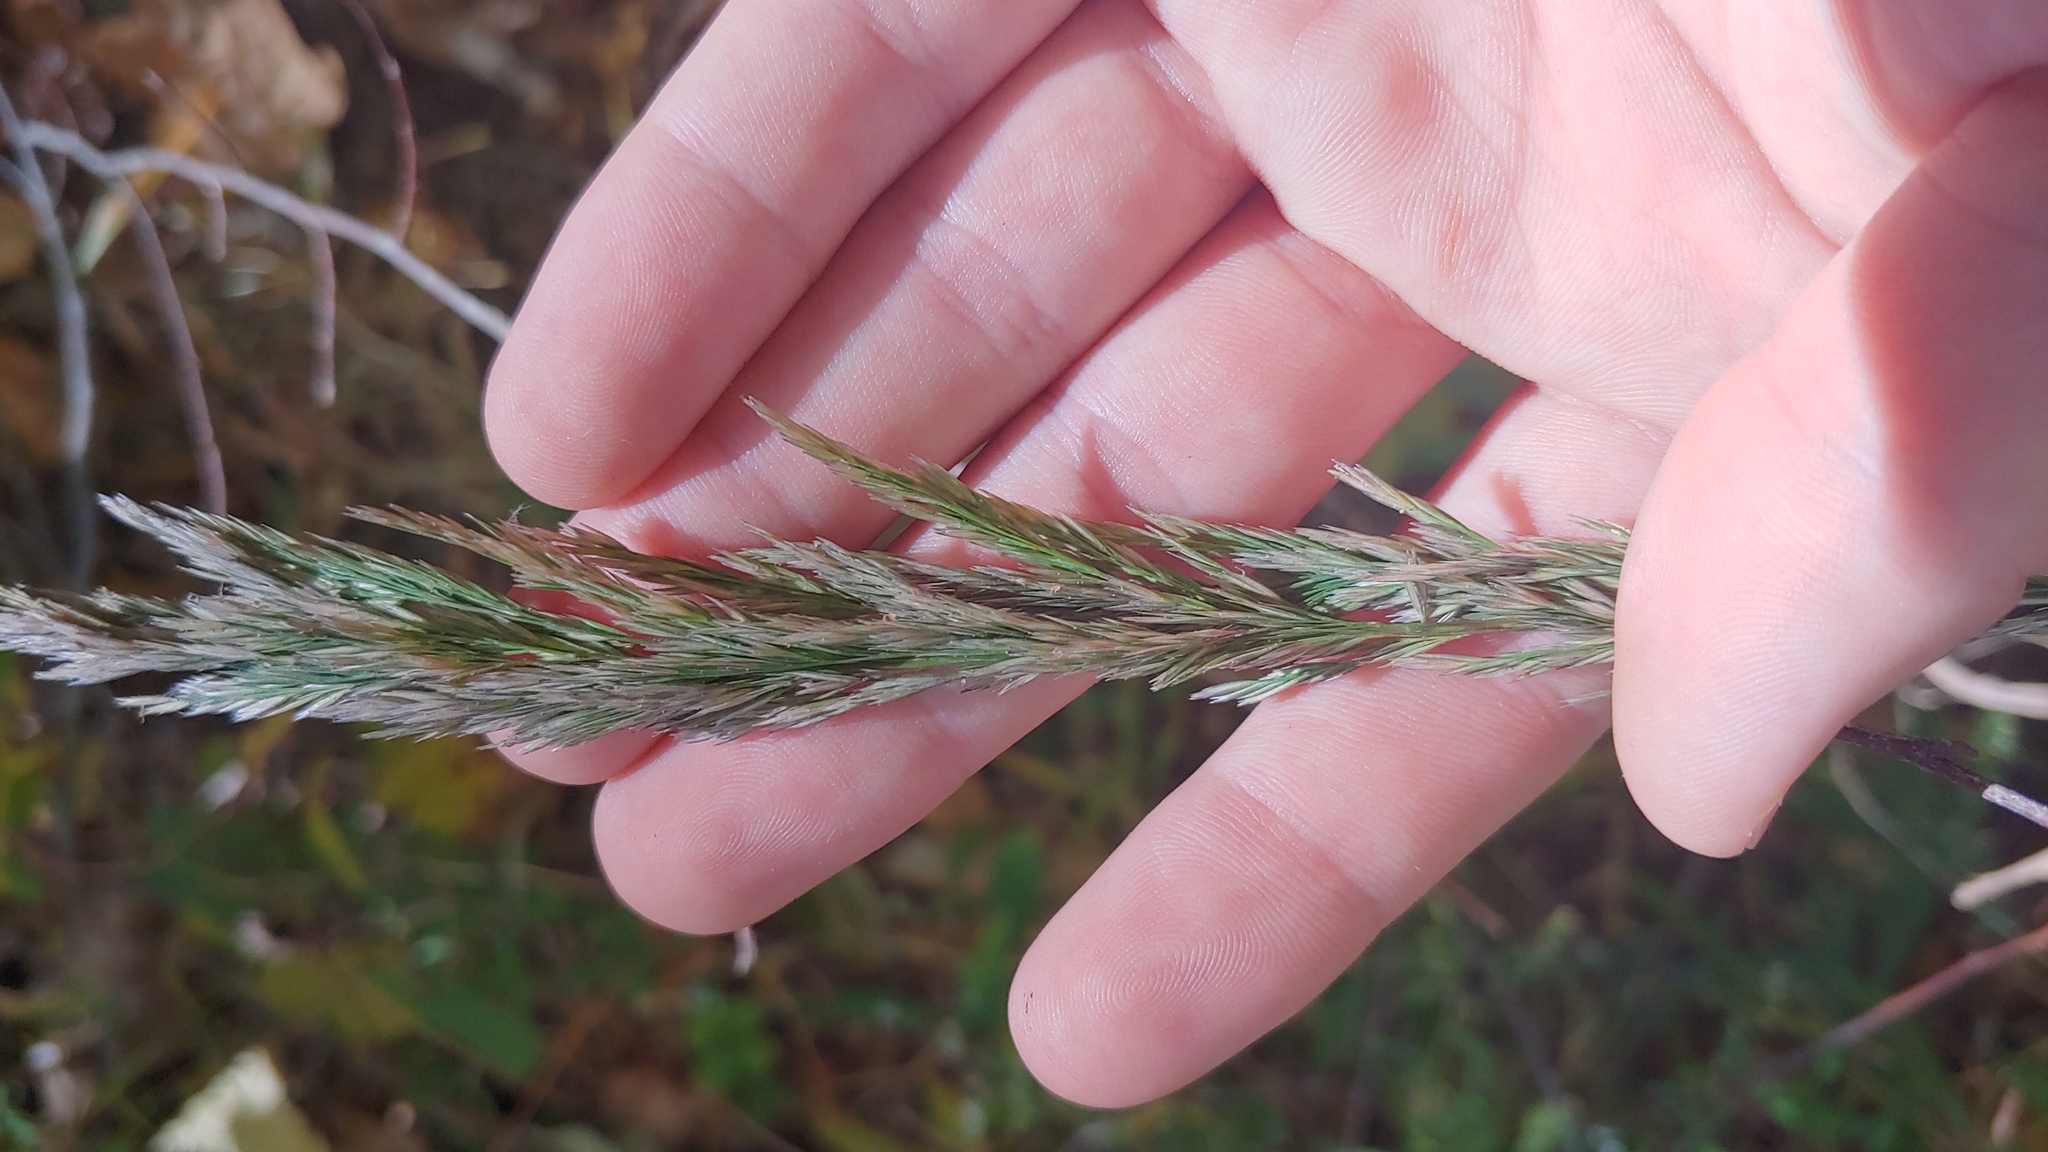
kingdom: Plantae
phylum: Tracheophyta
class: Liliopsida
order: Poales
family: Poaceae
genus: Cinna
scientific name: Cinna arundinacea
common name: Stout woodreed
